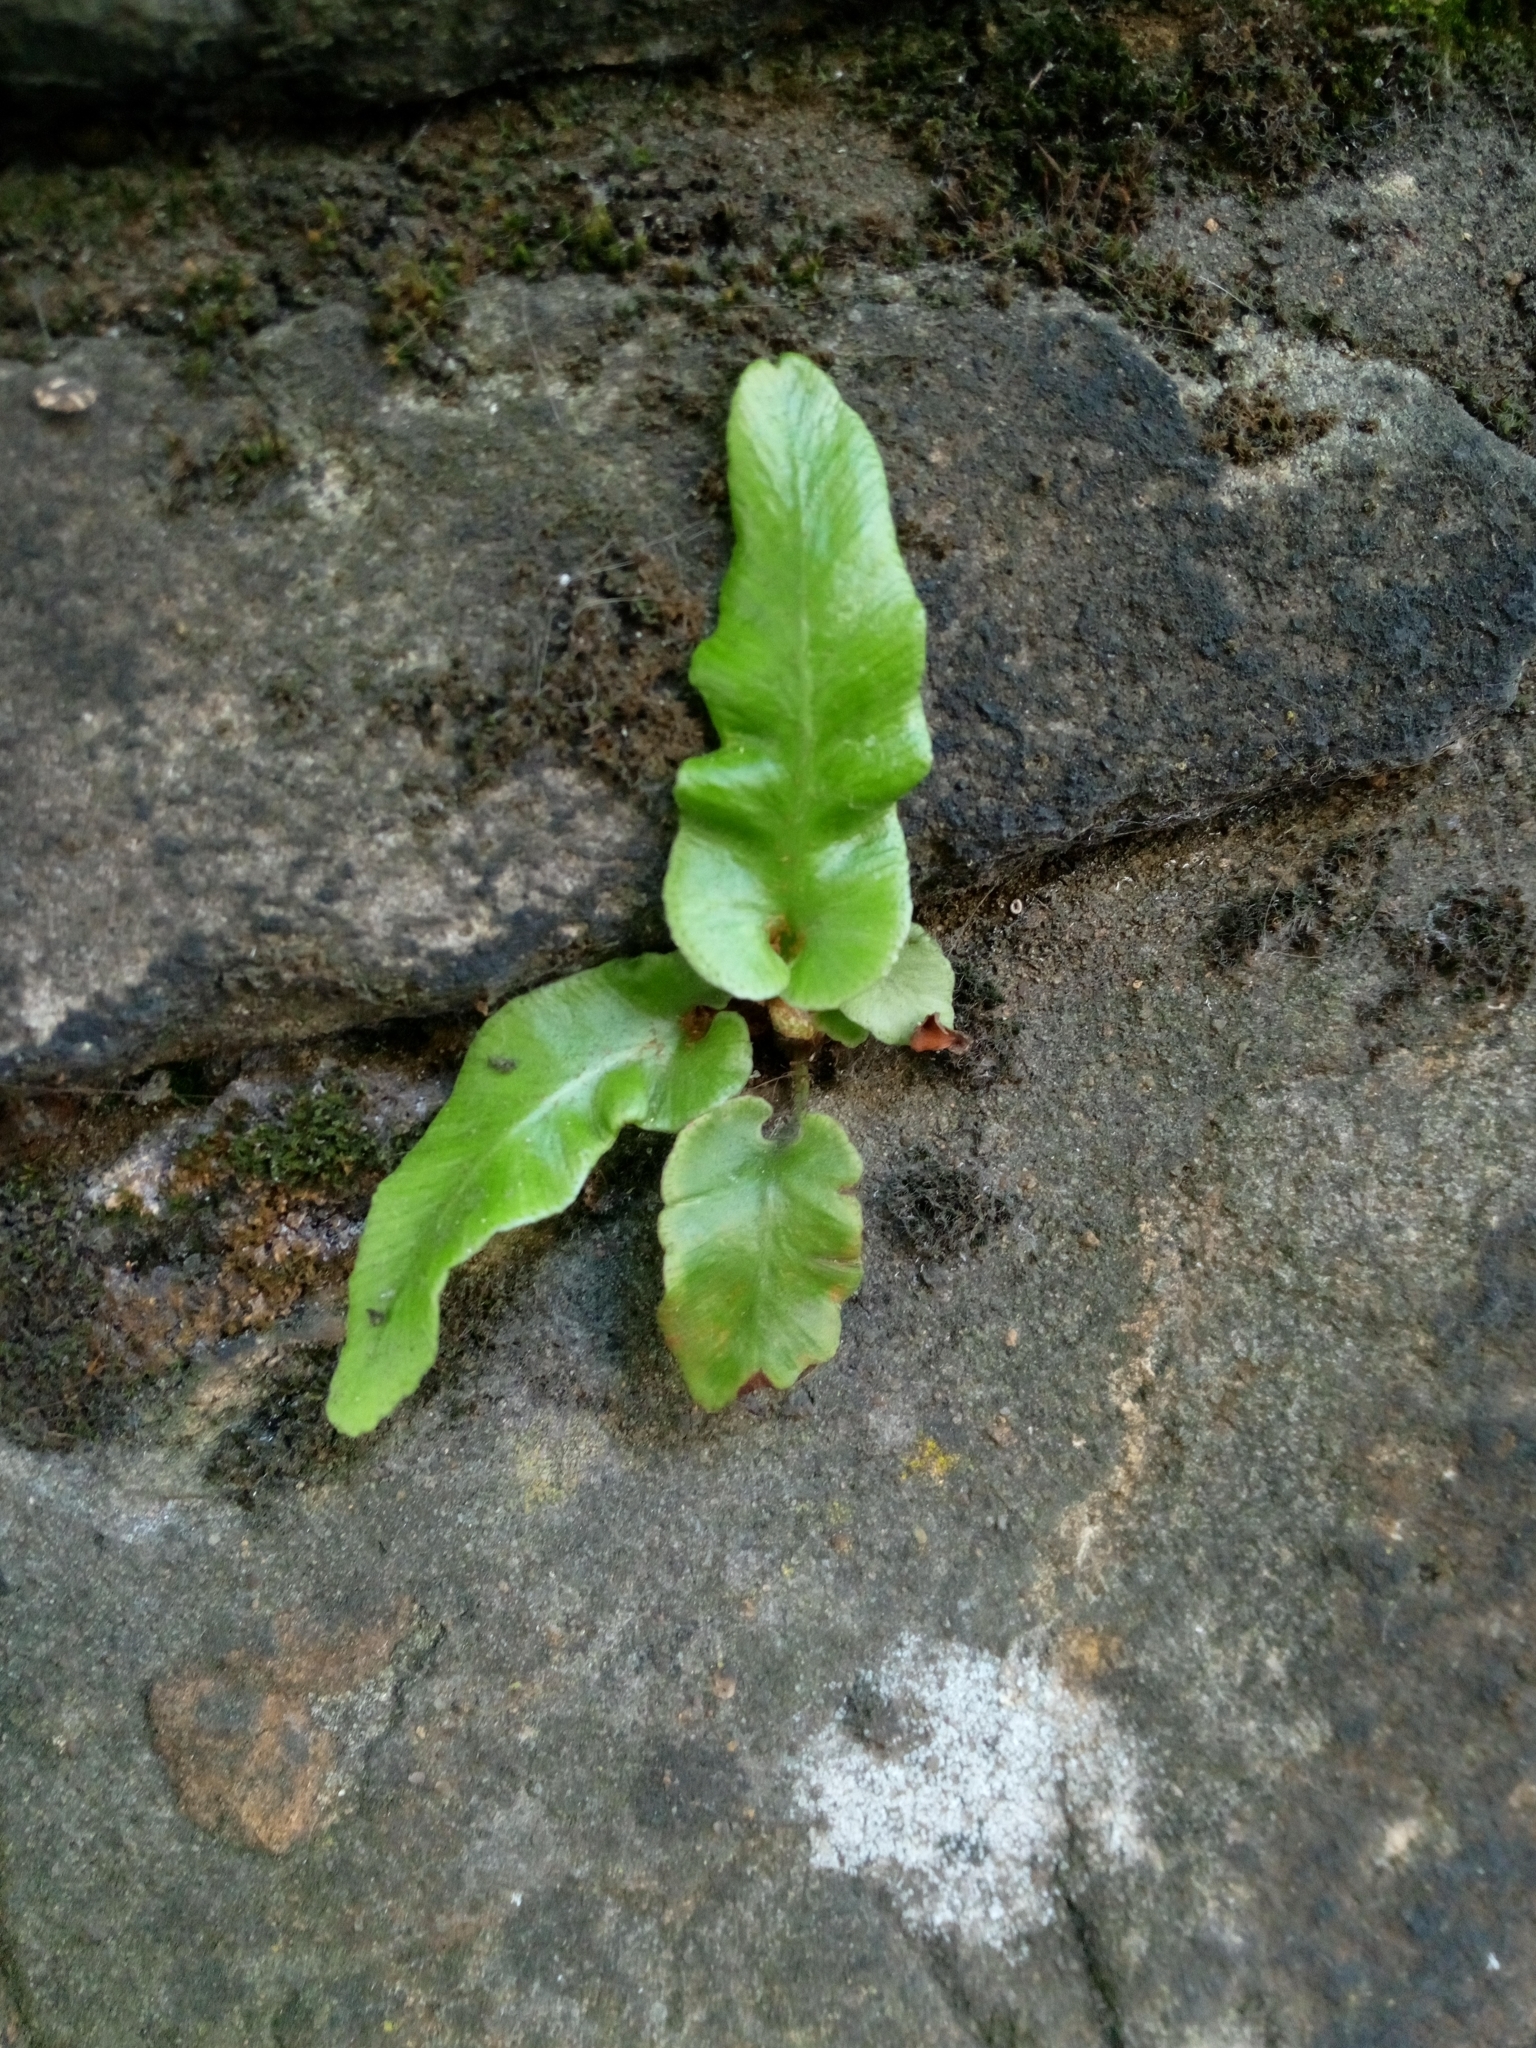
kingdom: Plantae
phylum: Tracheophyta
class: Polypodiopsida
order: Polypodiales
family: Aspleniaceae
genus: Asplenium
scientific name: Asplenium scolopendrium
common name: Hart's-tongue fern
